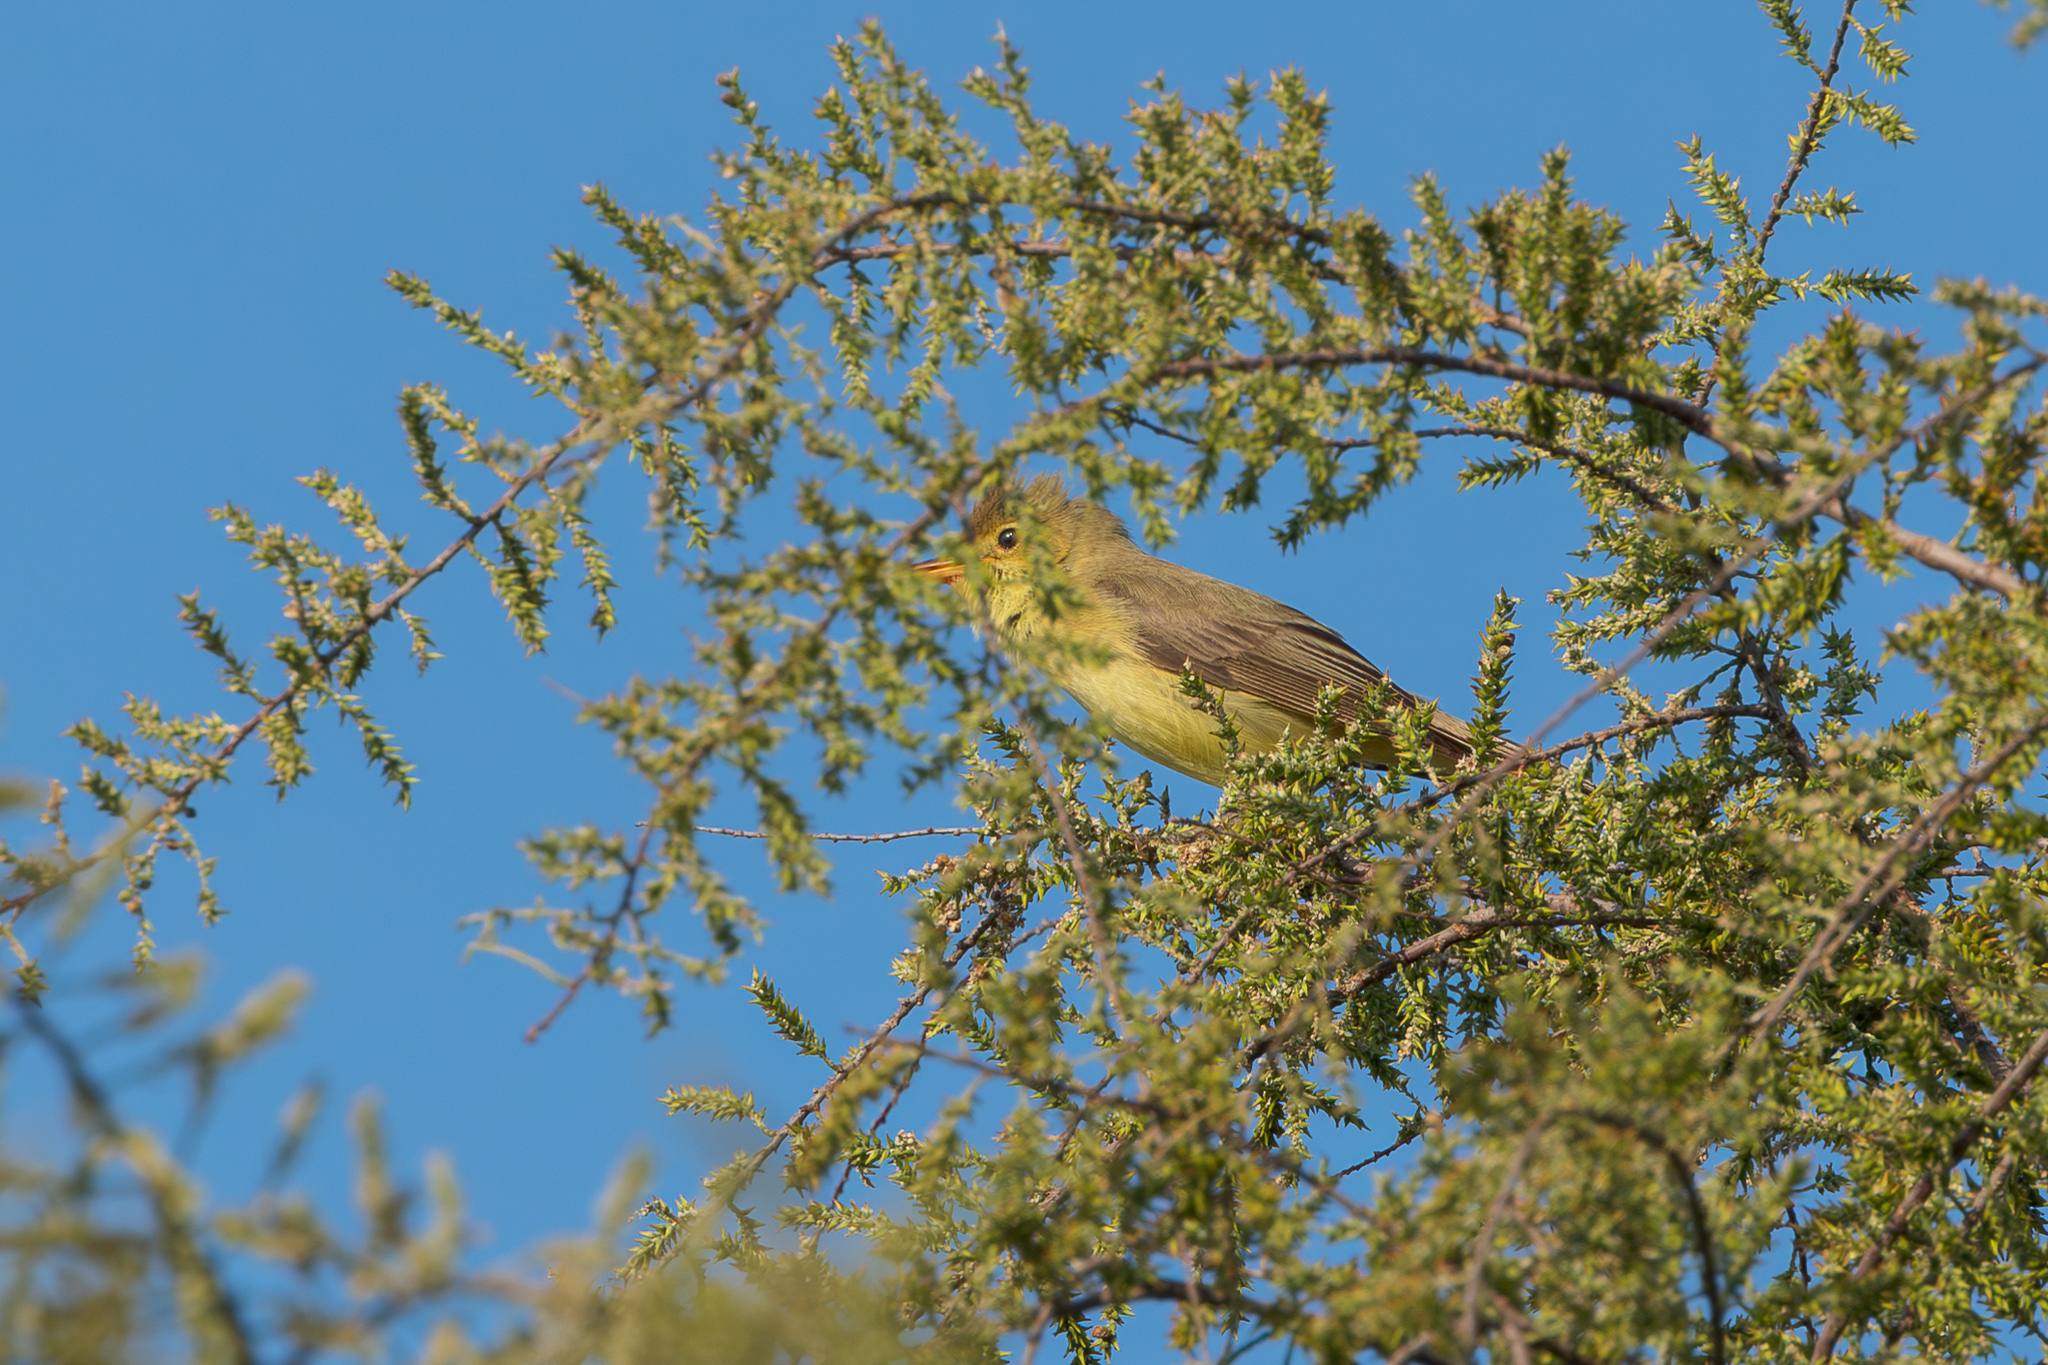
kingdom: Animalia
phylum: Chordata
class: Aves
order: Passeriformes
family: Acrocephalidae
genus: Hippolais
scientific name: Hippolais polyglotta
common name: Melodious warbler
